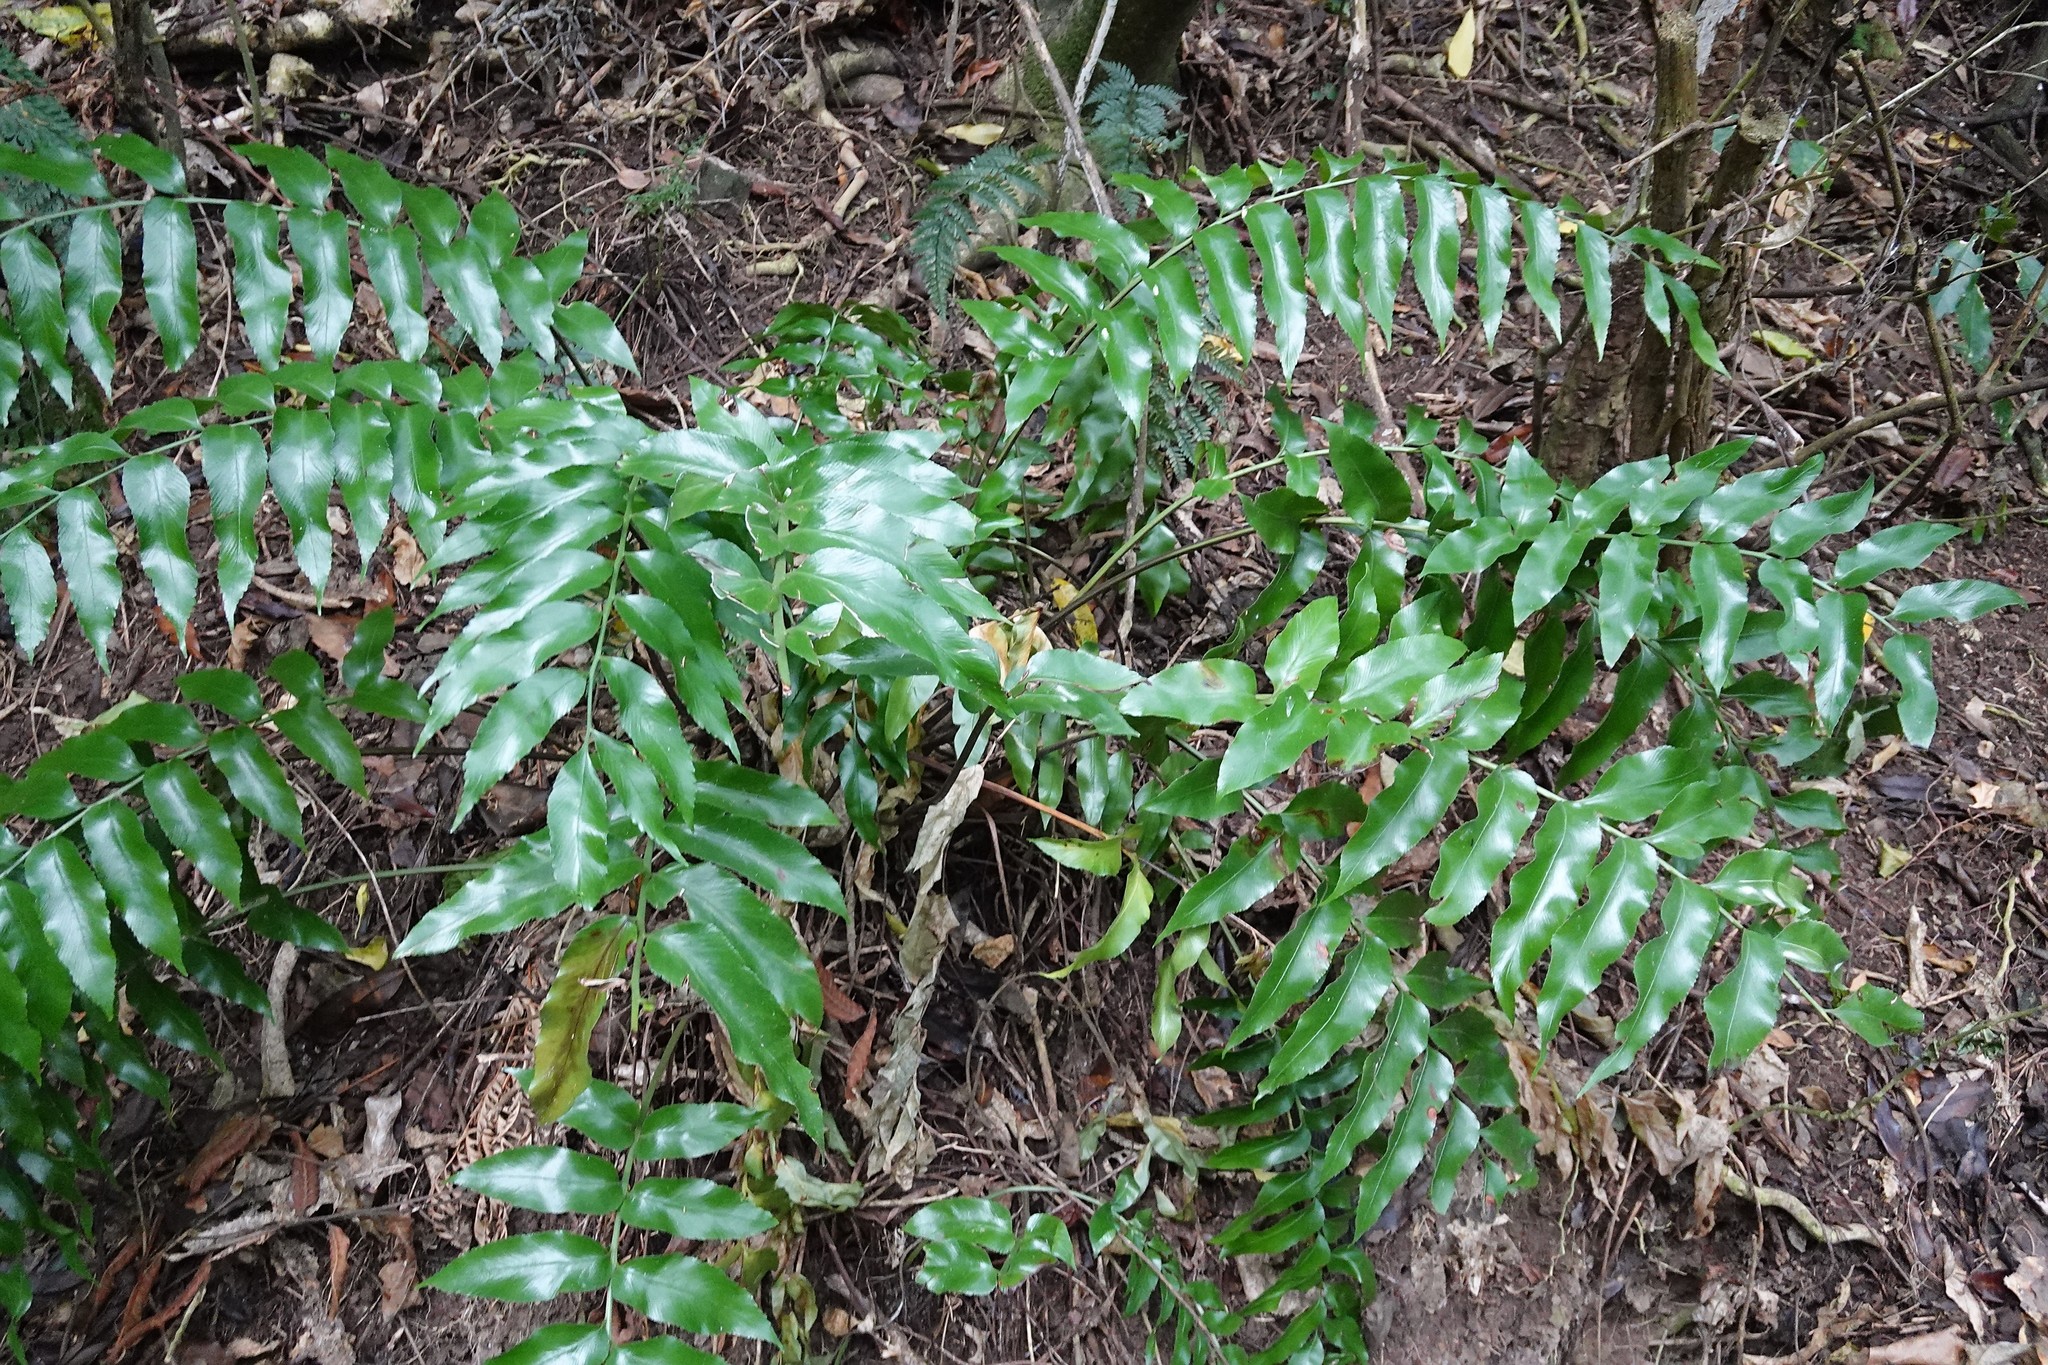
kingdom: Plantae
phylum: Tracheophyta
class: Polypodiopsida
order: Polypodiales
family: Aspleniaceae
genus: Asplenium
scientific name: Asplenium oblongifolium
